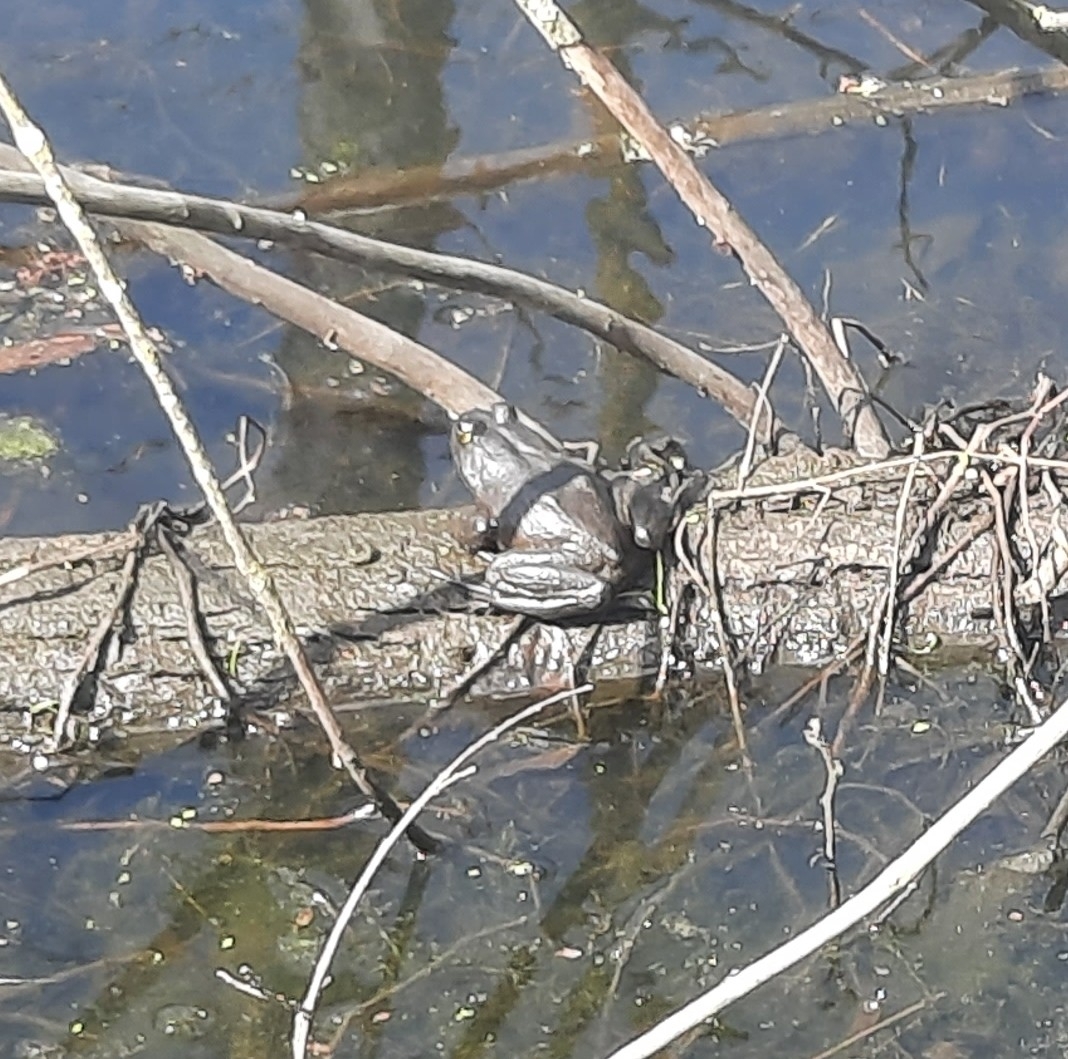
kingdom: Animalia
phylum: Chordata
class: Amphibia
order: Anura
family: Ranidae
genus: Lithobates
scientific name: Lithobates catesbeianus
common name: American bullfrog
